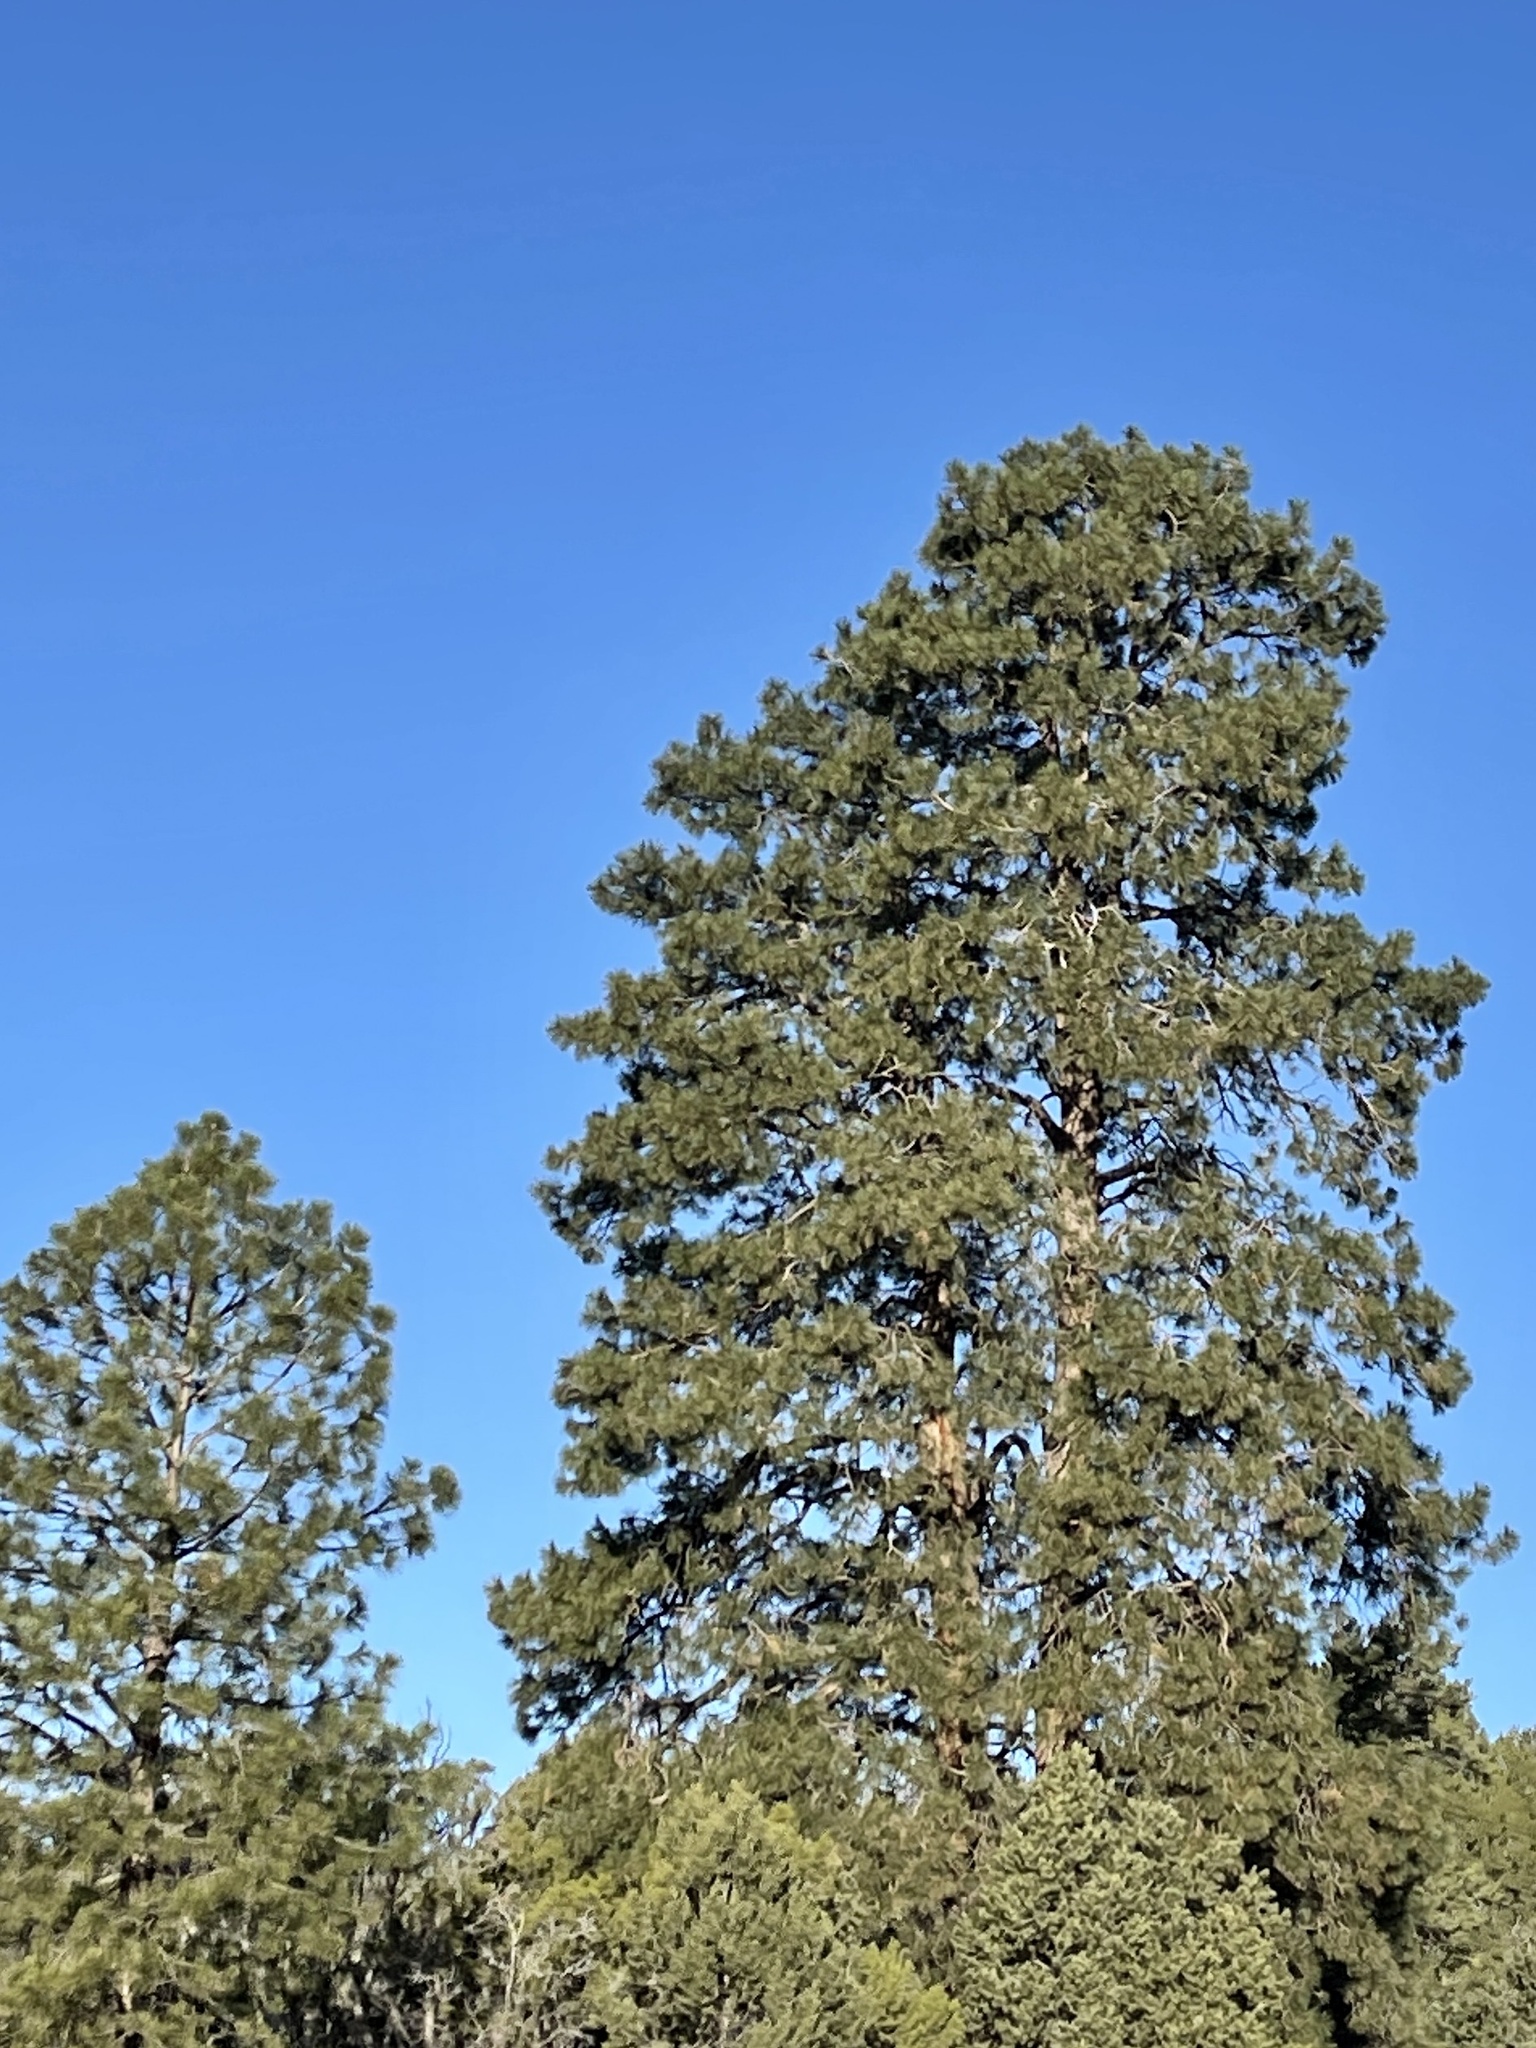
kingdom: Plantae
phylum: Tracheophyta
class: Pinopsida
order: Pinales
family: Pinaceae
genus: Pinus
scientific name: Pinus ponderosa
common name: Western yellow-pine
